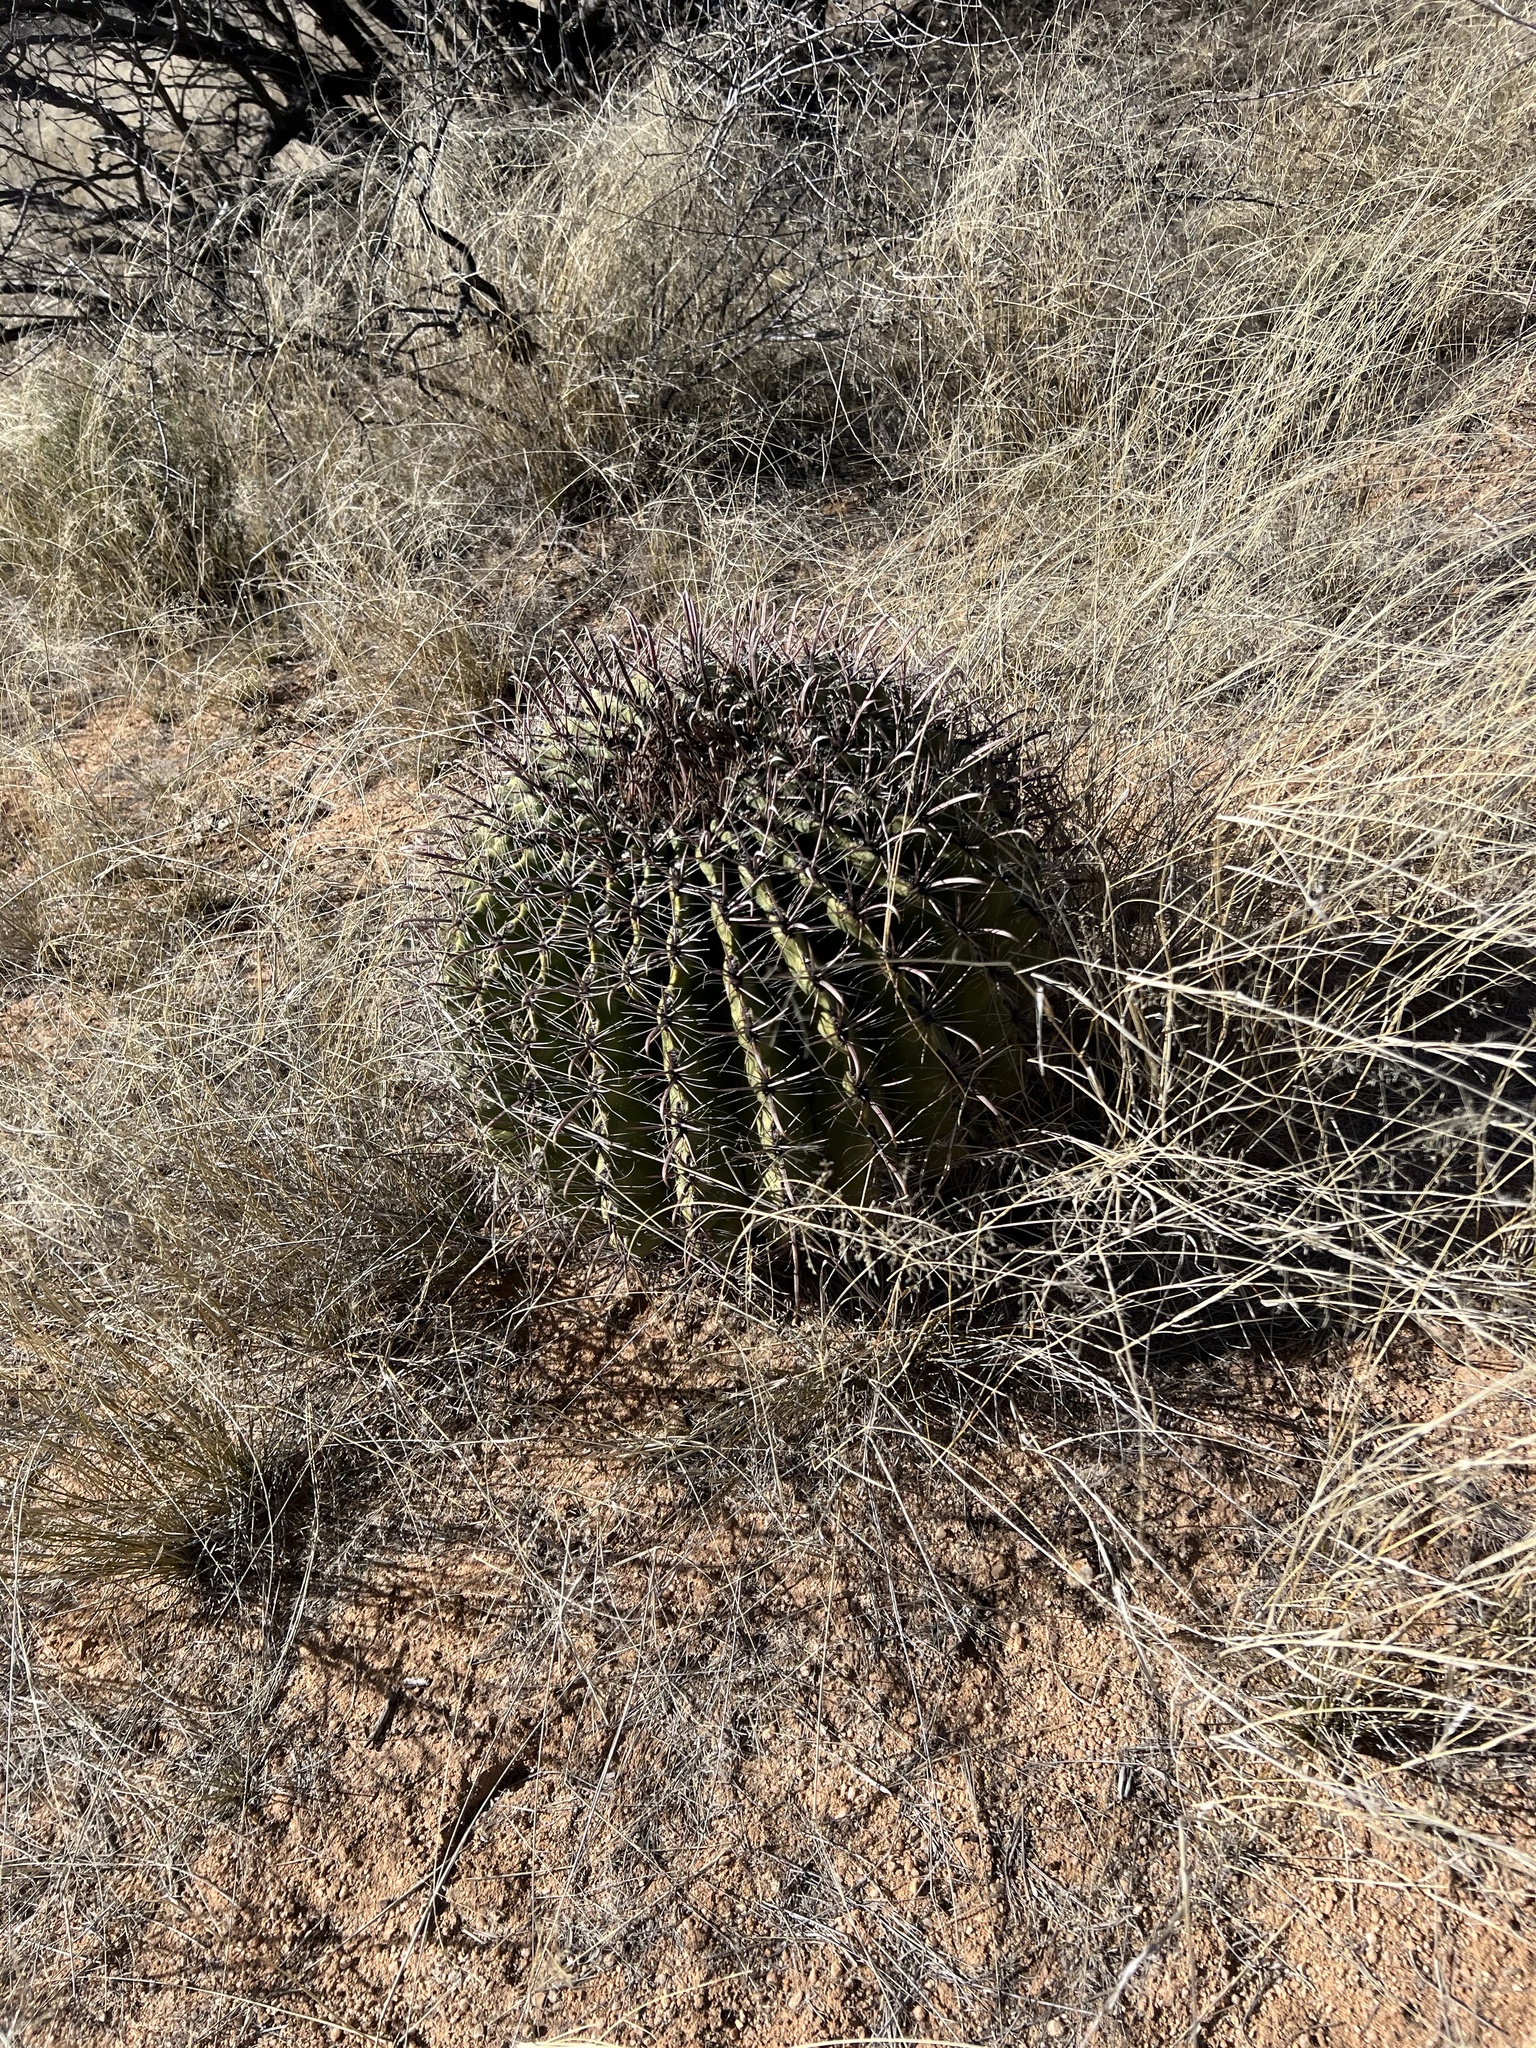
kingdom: Plantae
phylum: Tracheophyta
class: Magnoliopsida
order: Caryophyllales
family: Cactaceae
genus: Ferocactus
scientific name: Ferocactus wislizeni
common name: Candy barrel cactus
